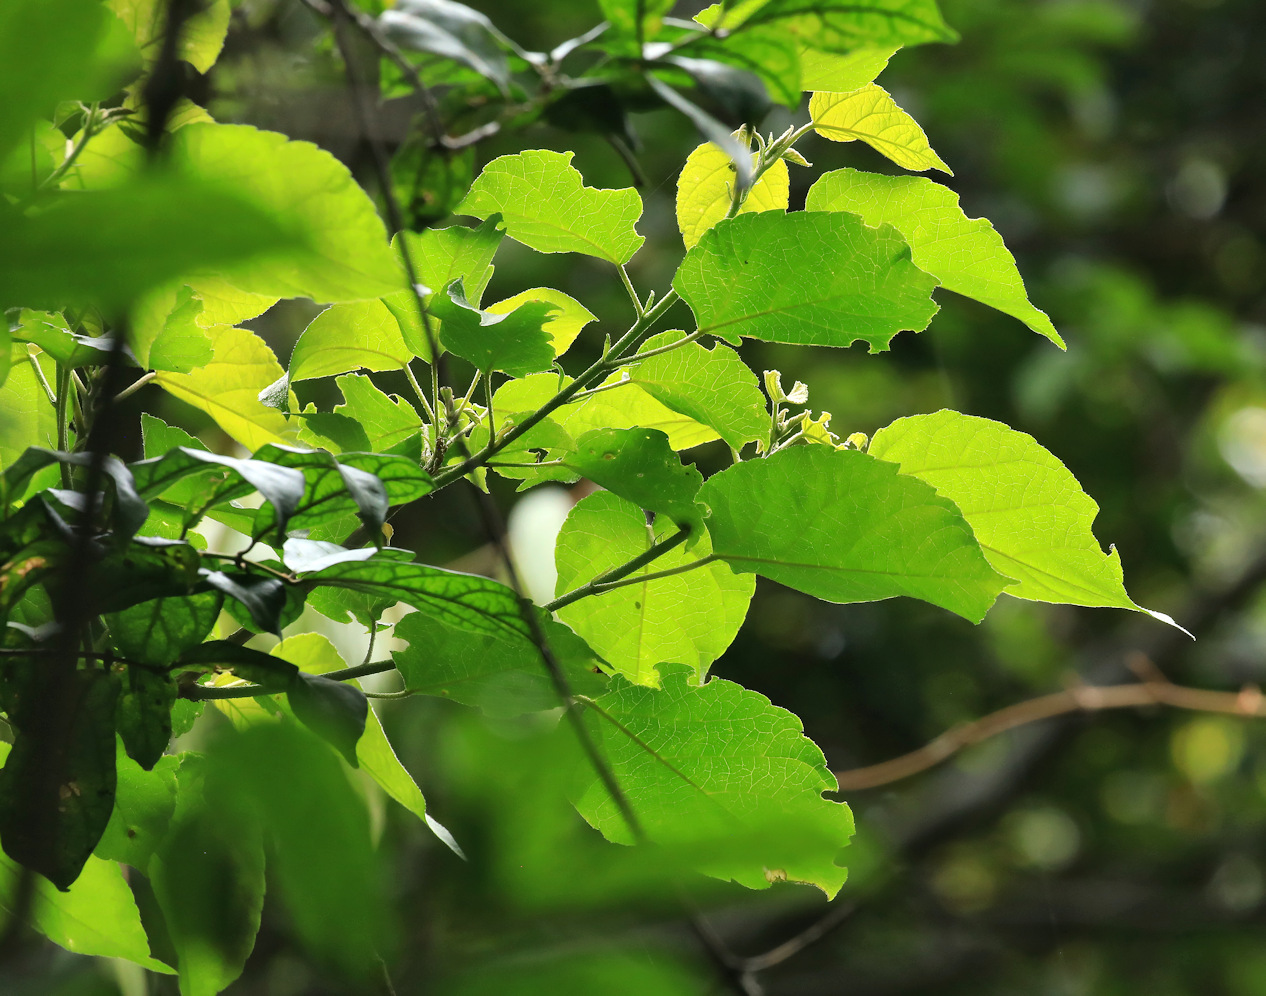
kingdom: Plantae
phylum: Tracheophyta
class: Magnoliopsida
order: Malpighiales
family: Euphorbiaceae
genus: Croton
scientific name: Croton sylvaticus
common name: Forest croton
